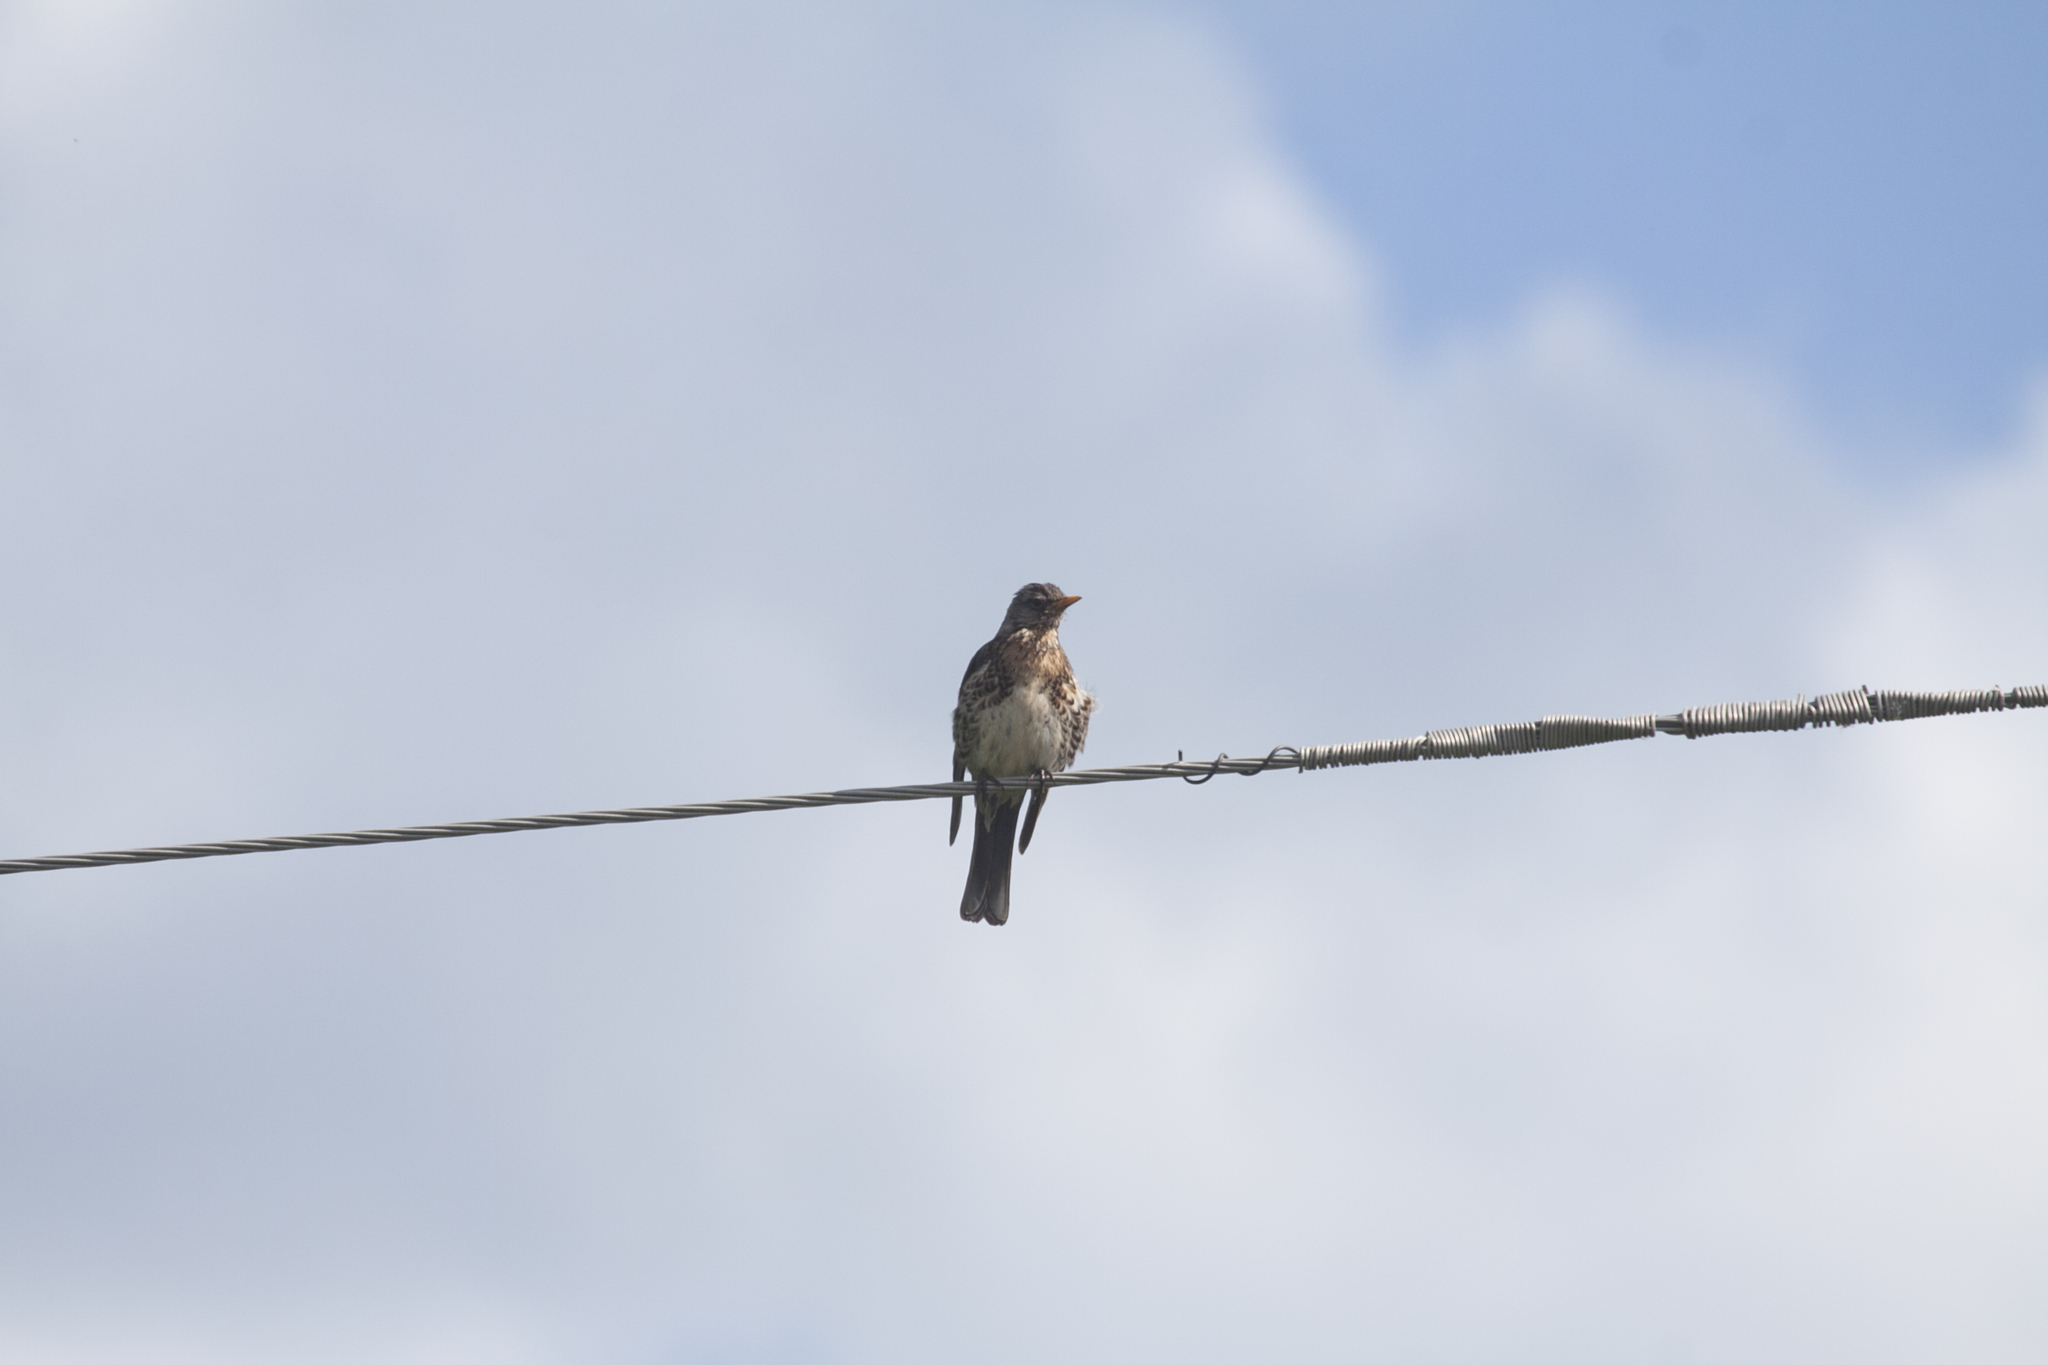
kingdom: Animalia
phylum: Chordata
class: Aves
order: Passeriformes
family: Turdidae
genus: Turdus
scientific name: Turdus pilaris
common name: Fieldfare
